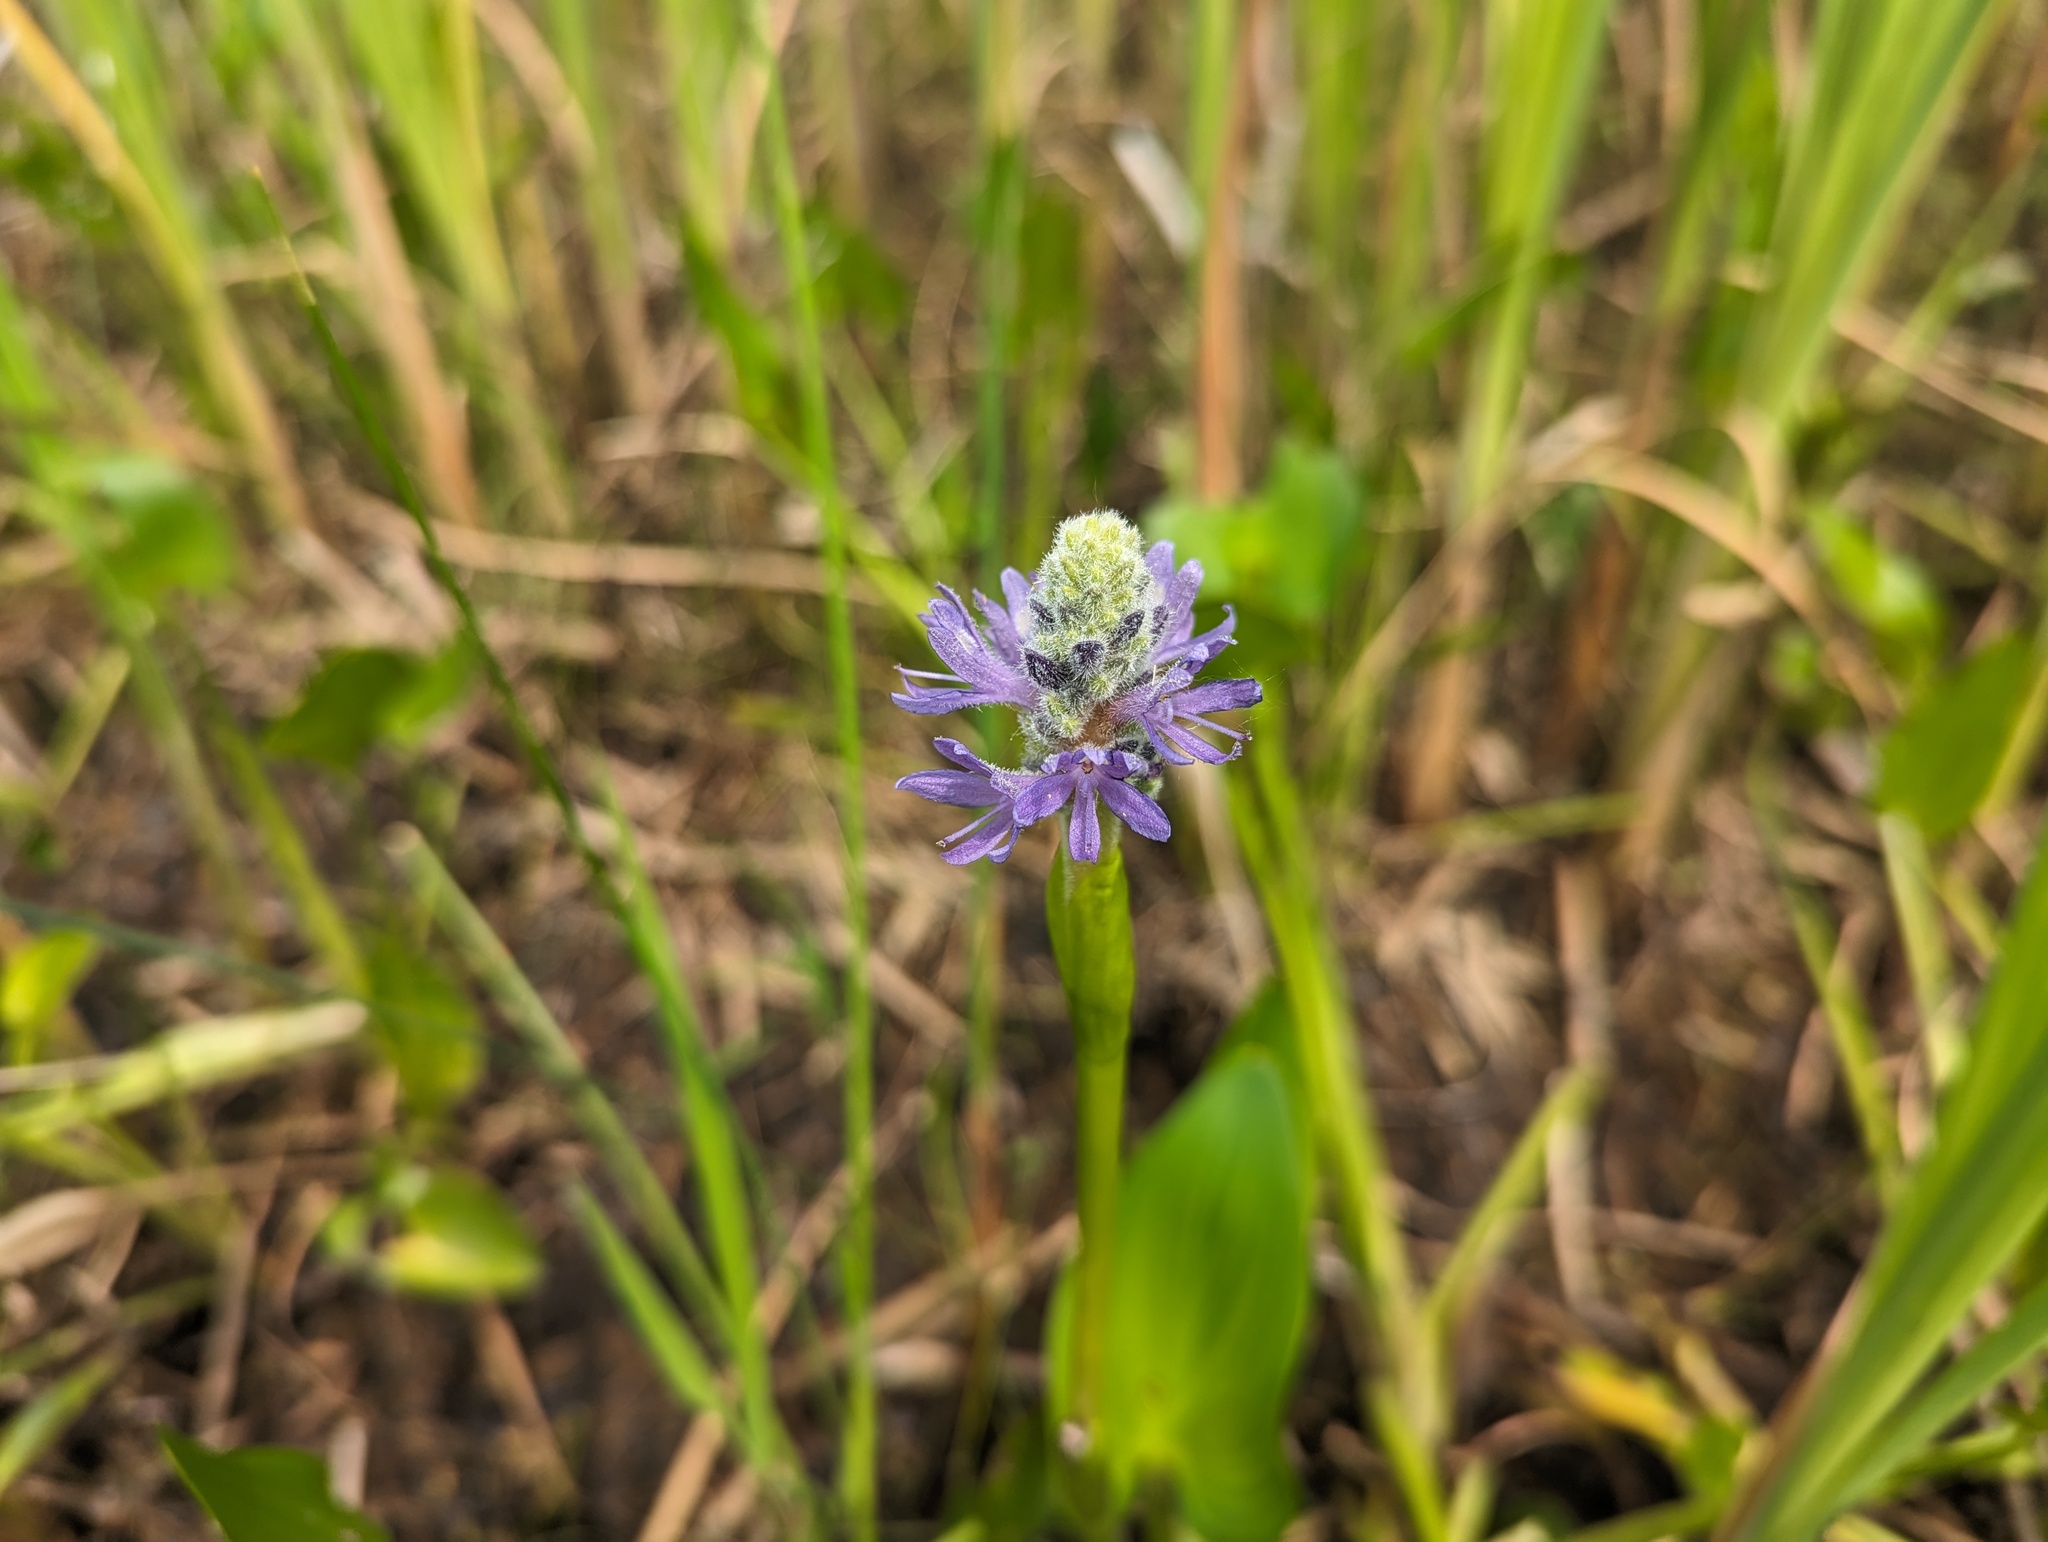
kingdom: Plantae
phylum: Tracheophyta
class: Liliopsida
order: Commelinales
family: Pontederiaceae
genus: Pontederia
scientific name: Pontederia cordata
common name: Pickerelweed
